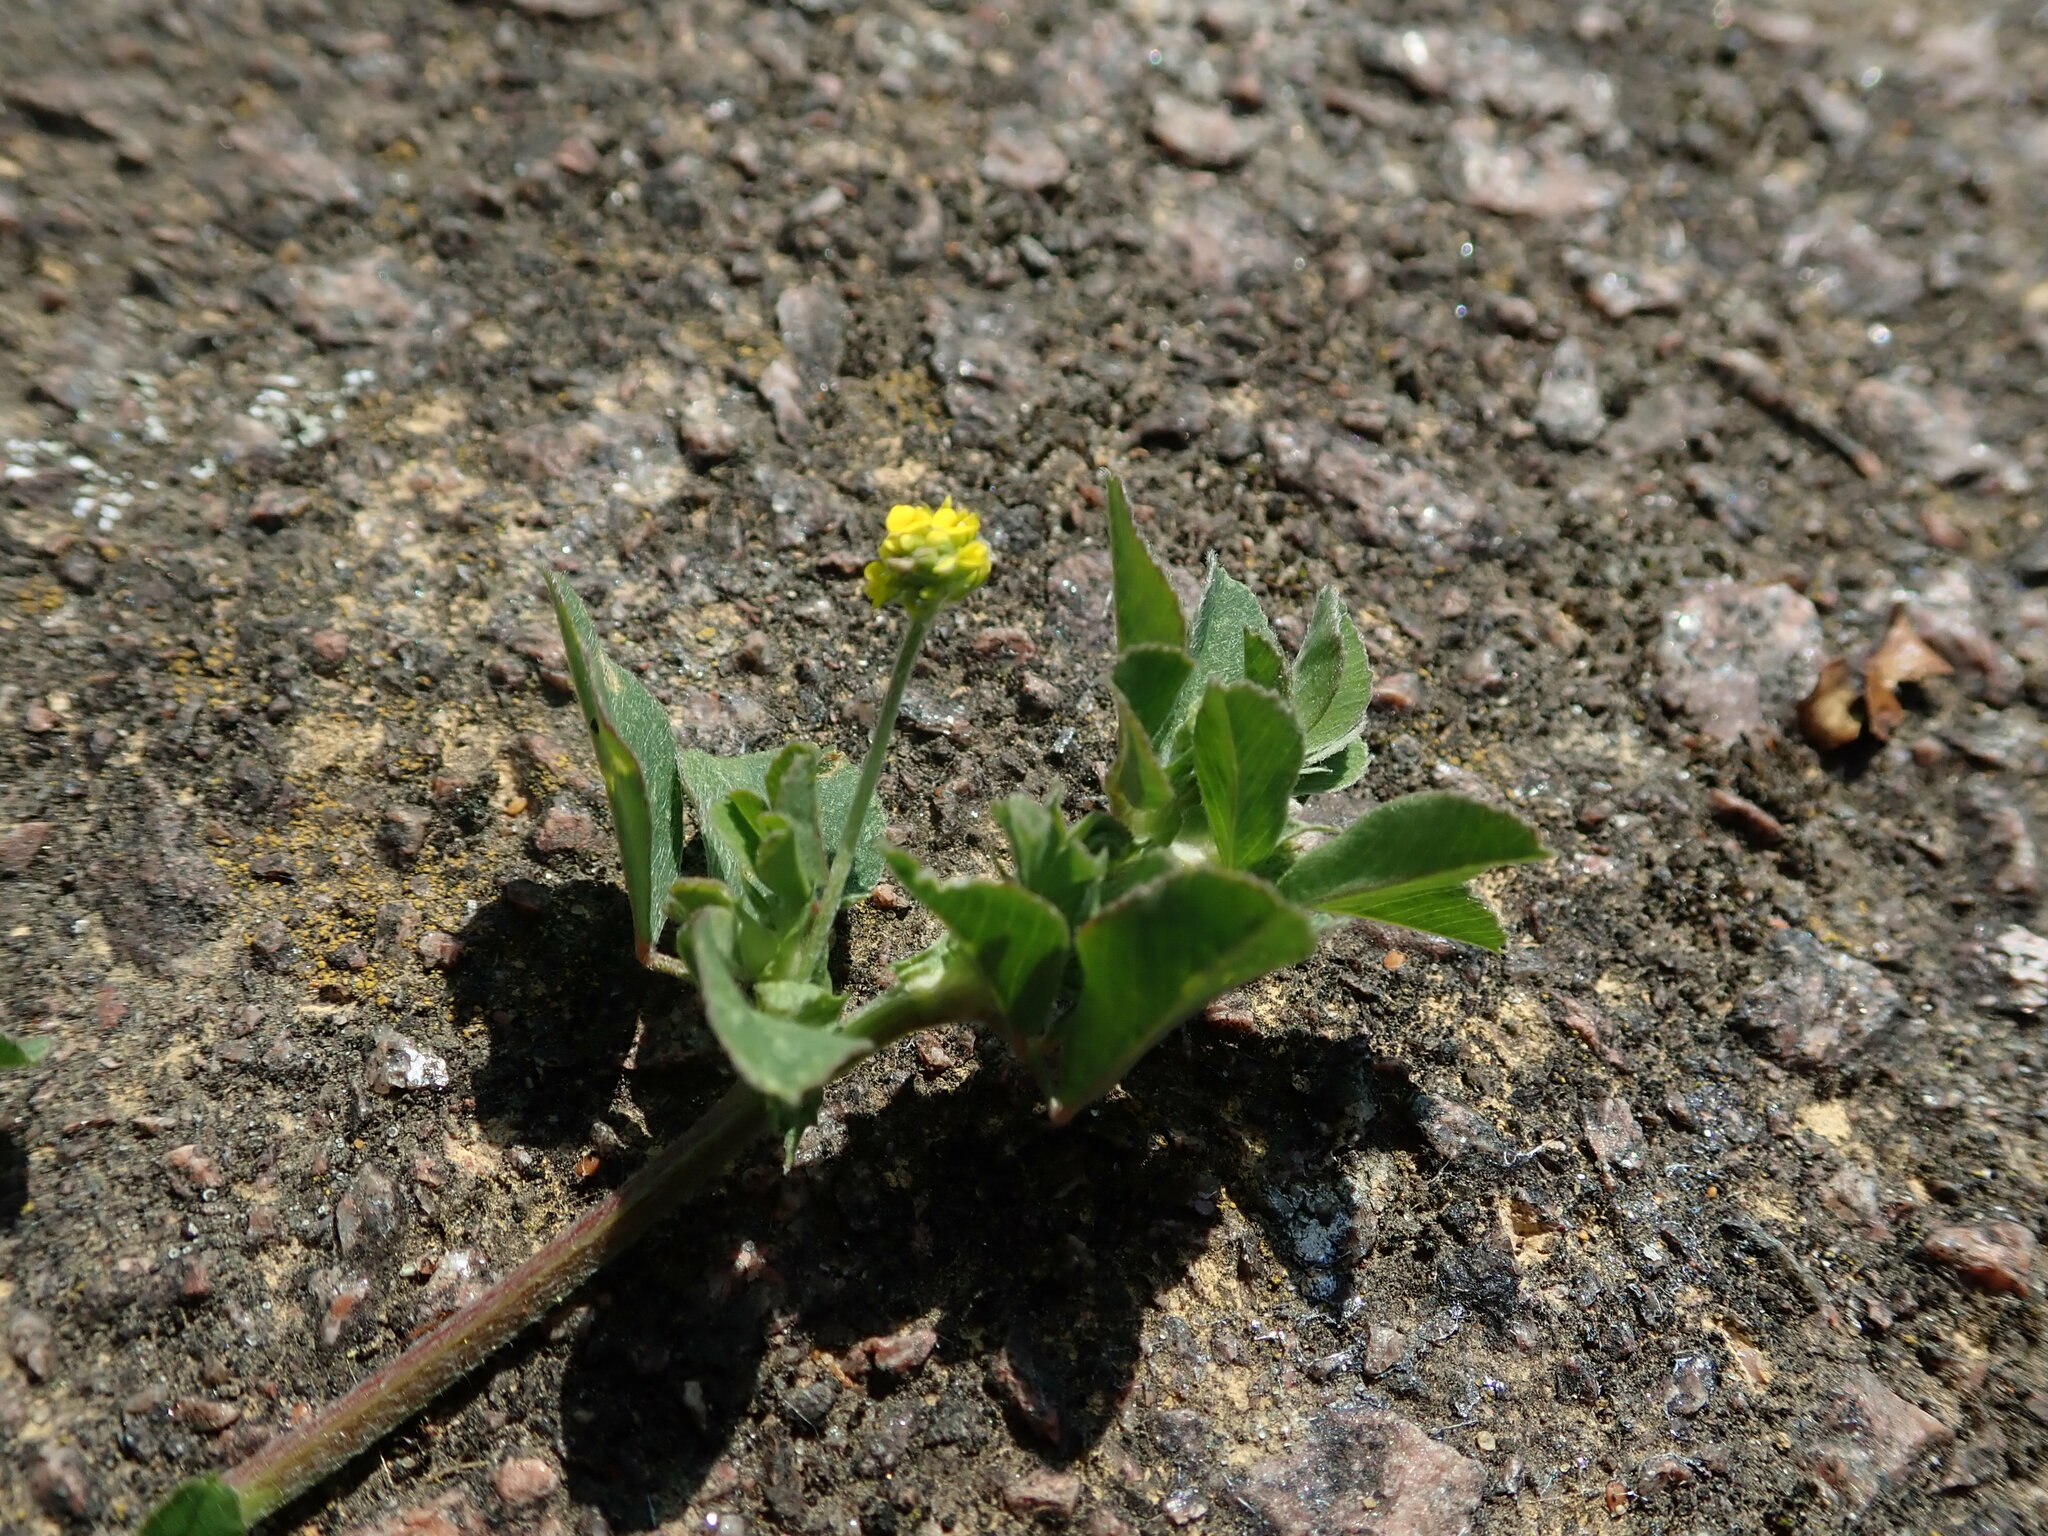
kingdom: Plantae
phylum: Tracheophyta
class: Magnoliopsida
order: Fabales
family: Fabaceae
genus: Medicago
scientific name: Medicago lupulina
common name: Black medick
